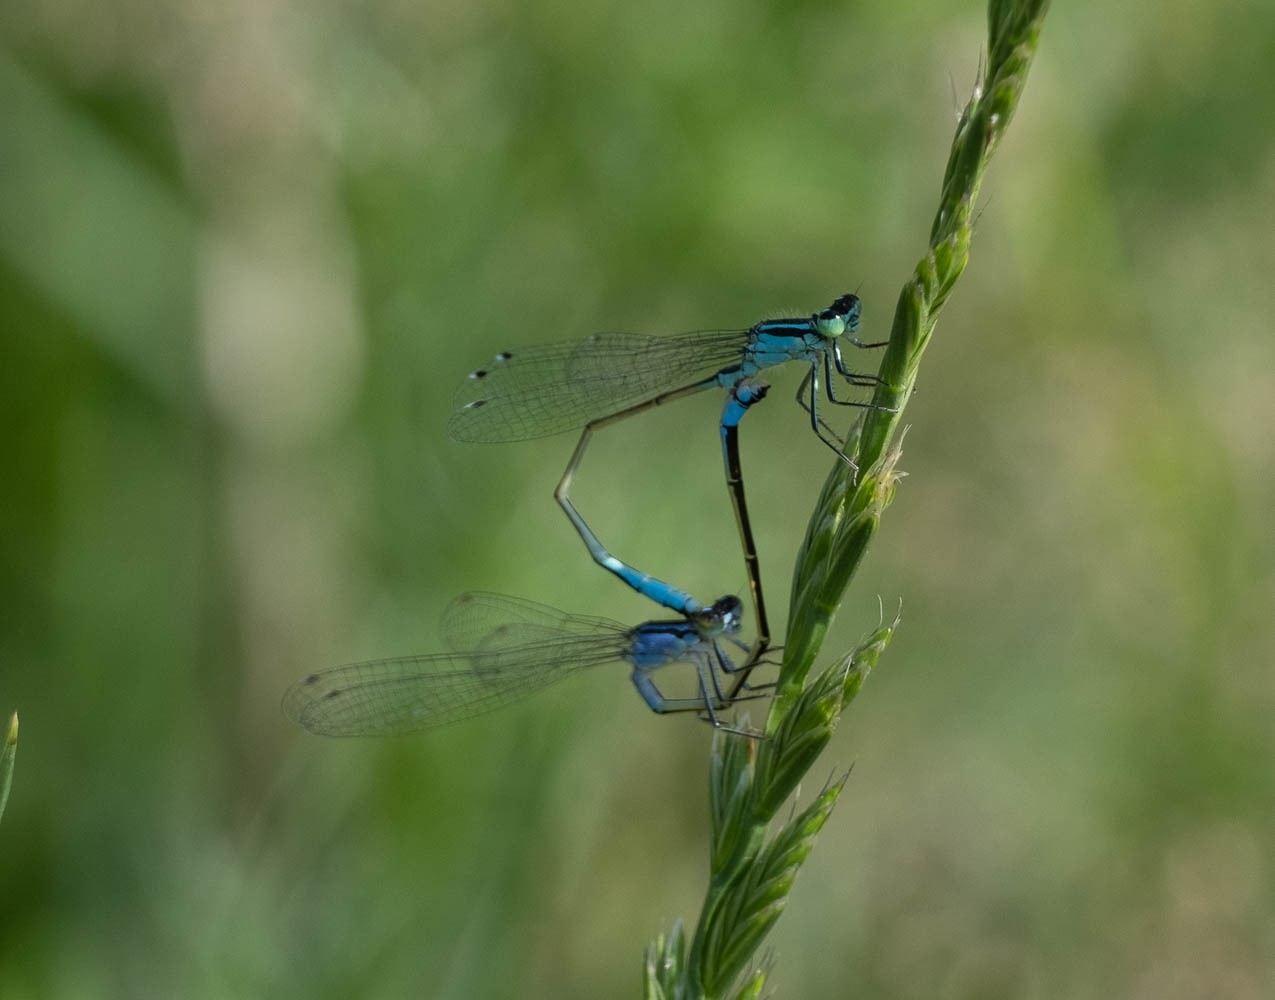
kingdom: Animalia
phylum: Arthropoda
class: Insecta
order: Odonata
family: Coenagrionidae
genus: Ischnura
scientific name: Ischnura elegans
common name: Blue-tailed damselfly
